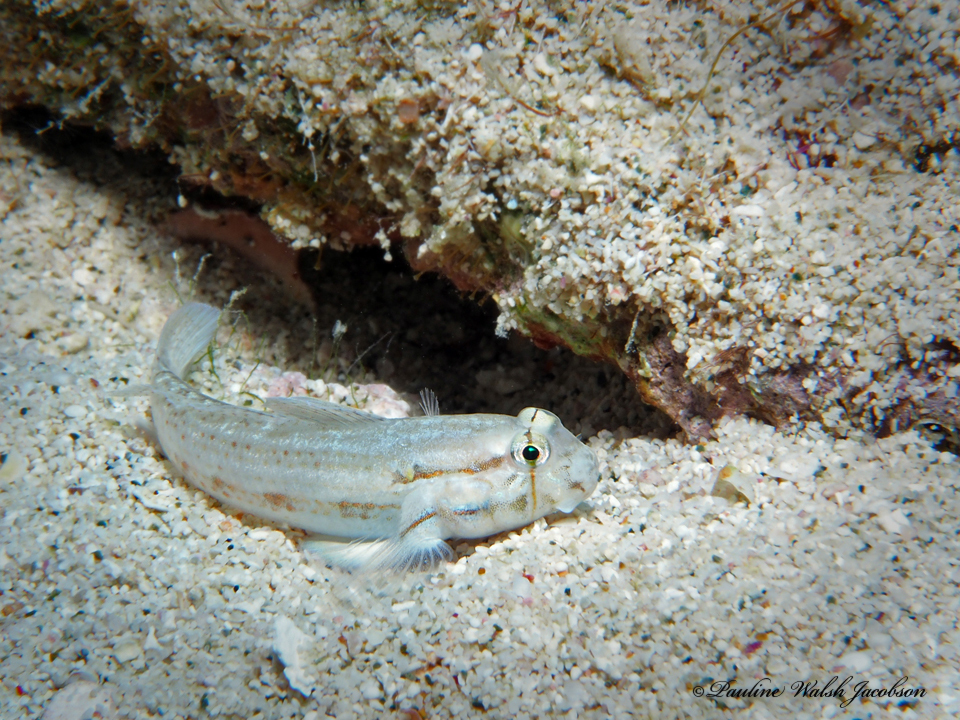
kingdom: Animalia
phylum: Chordata
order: Perciformes
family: Gobiidae
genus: Gnatholepis
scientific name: Gnatholepis thompsoni
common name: Goldspot goby
